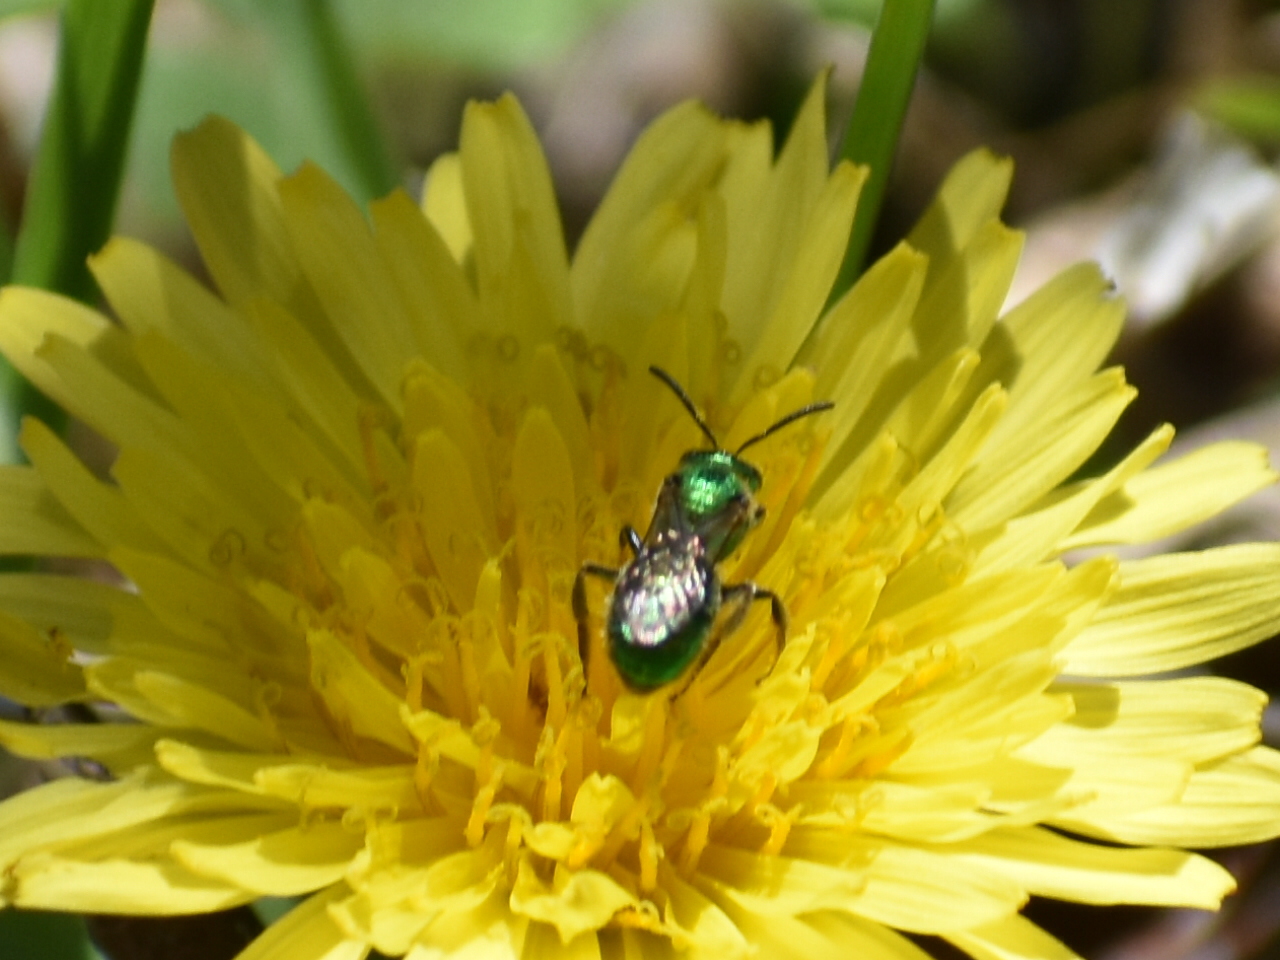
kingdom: Animalia
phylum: Arthropoda
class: Insecta
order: Hymenoptera
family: Halictidae
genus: Augochlorella
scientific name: Augochlorella aurata
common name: Golden sweat bee
